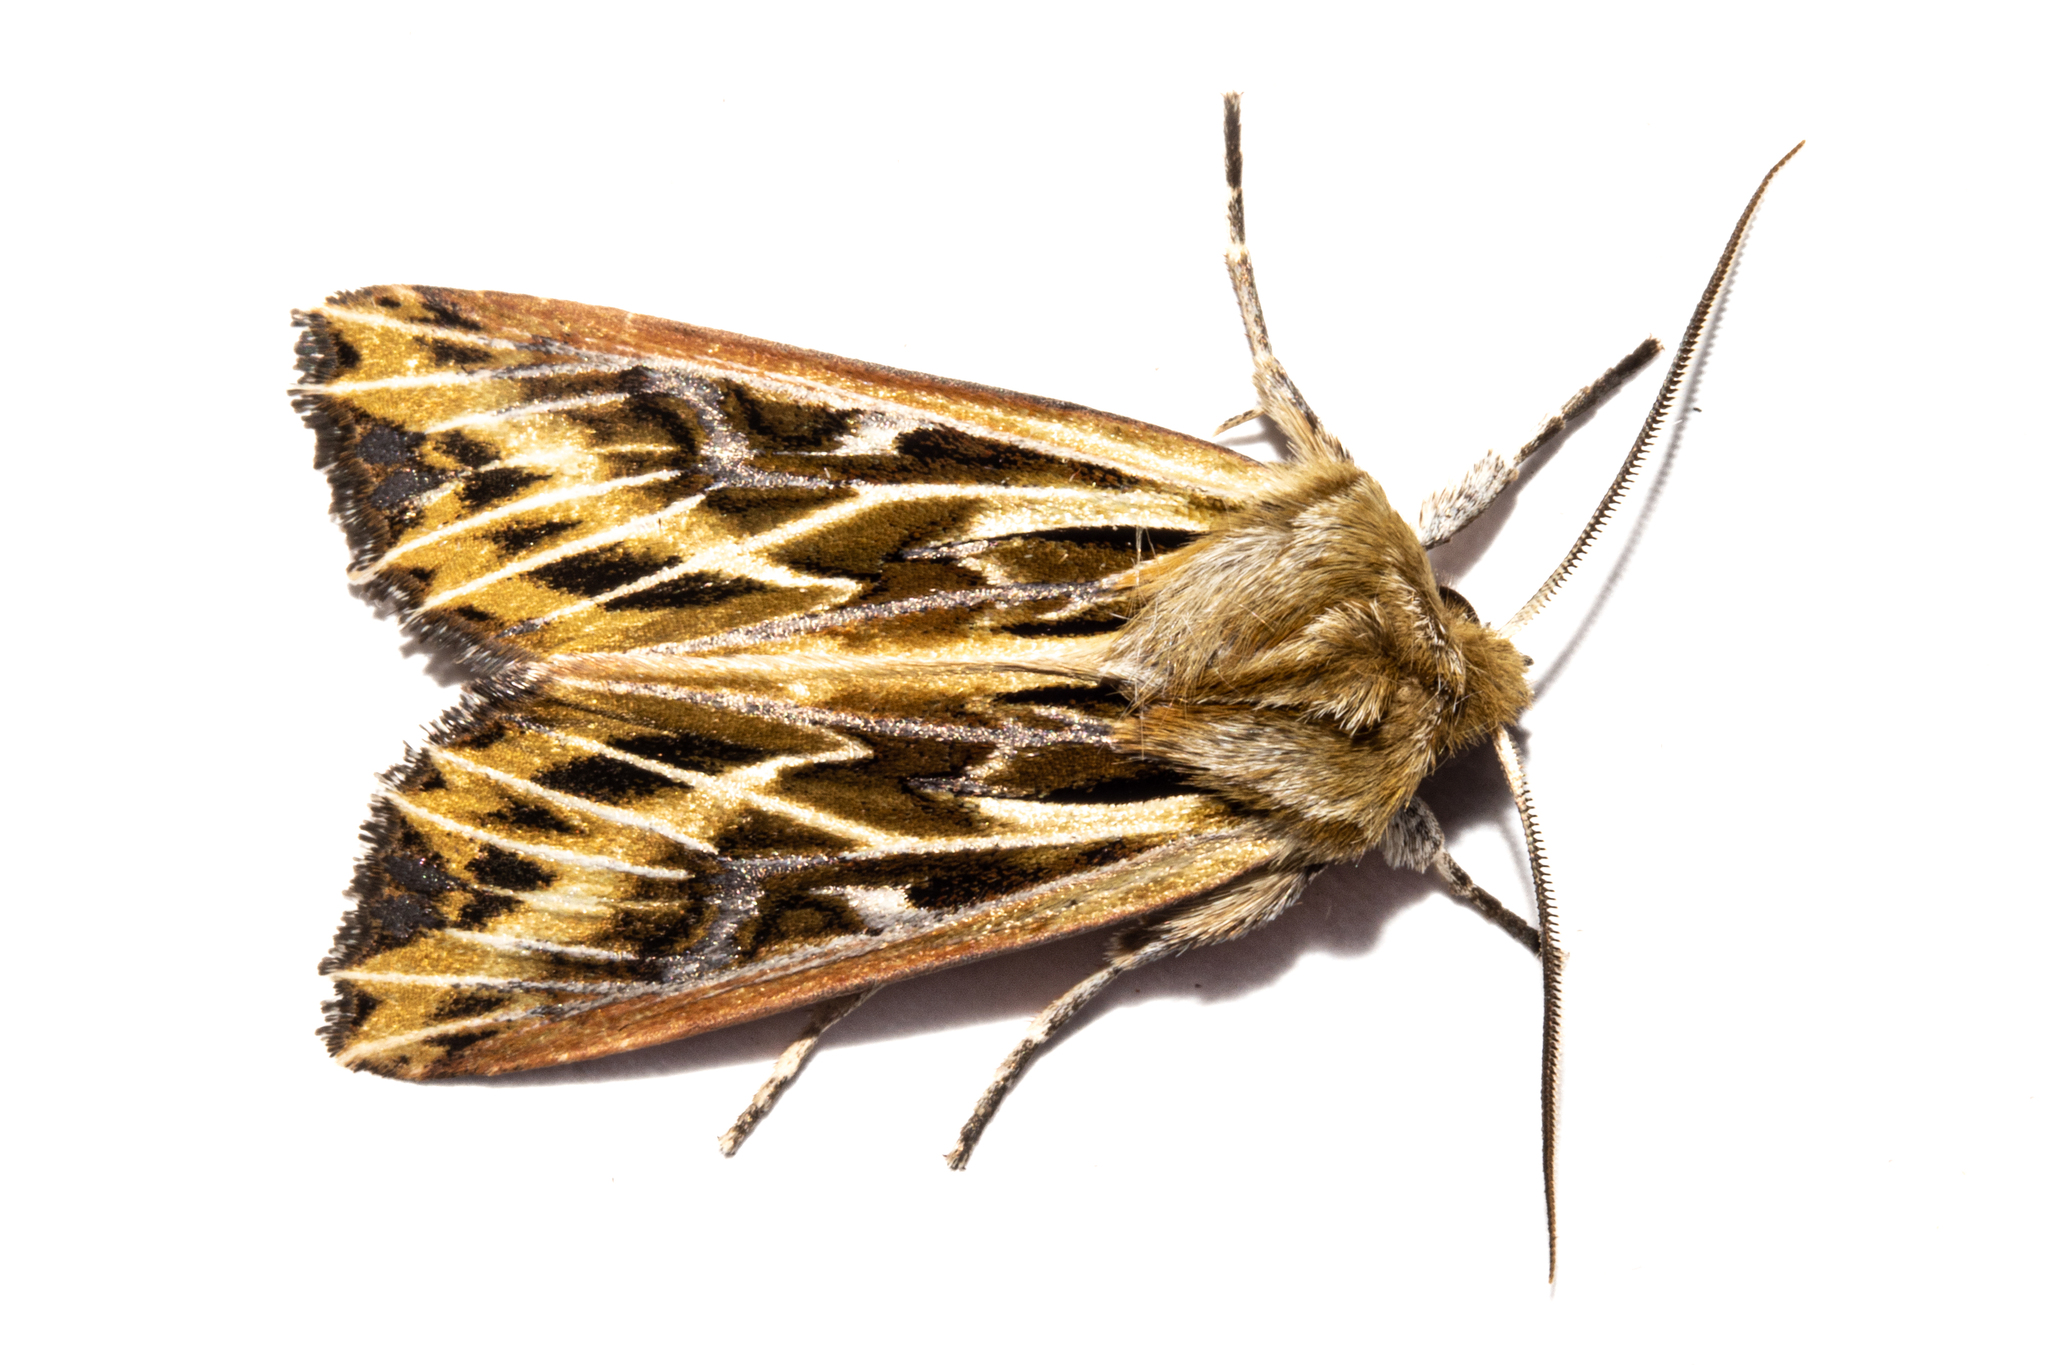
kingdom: Animalia
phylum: Arthropoda
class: Insecta
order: Lepidoptera
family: Noctuidae
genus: Ichneutica
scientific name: Ichneutica
